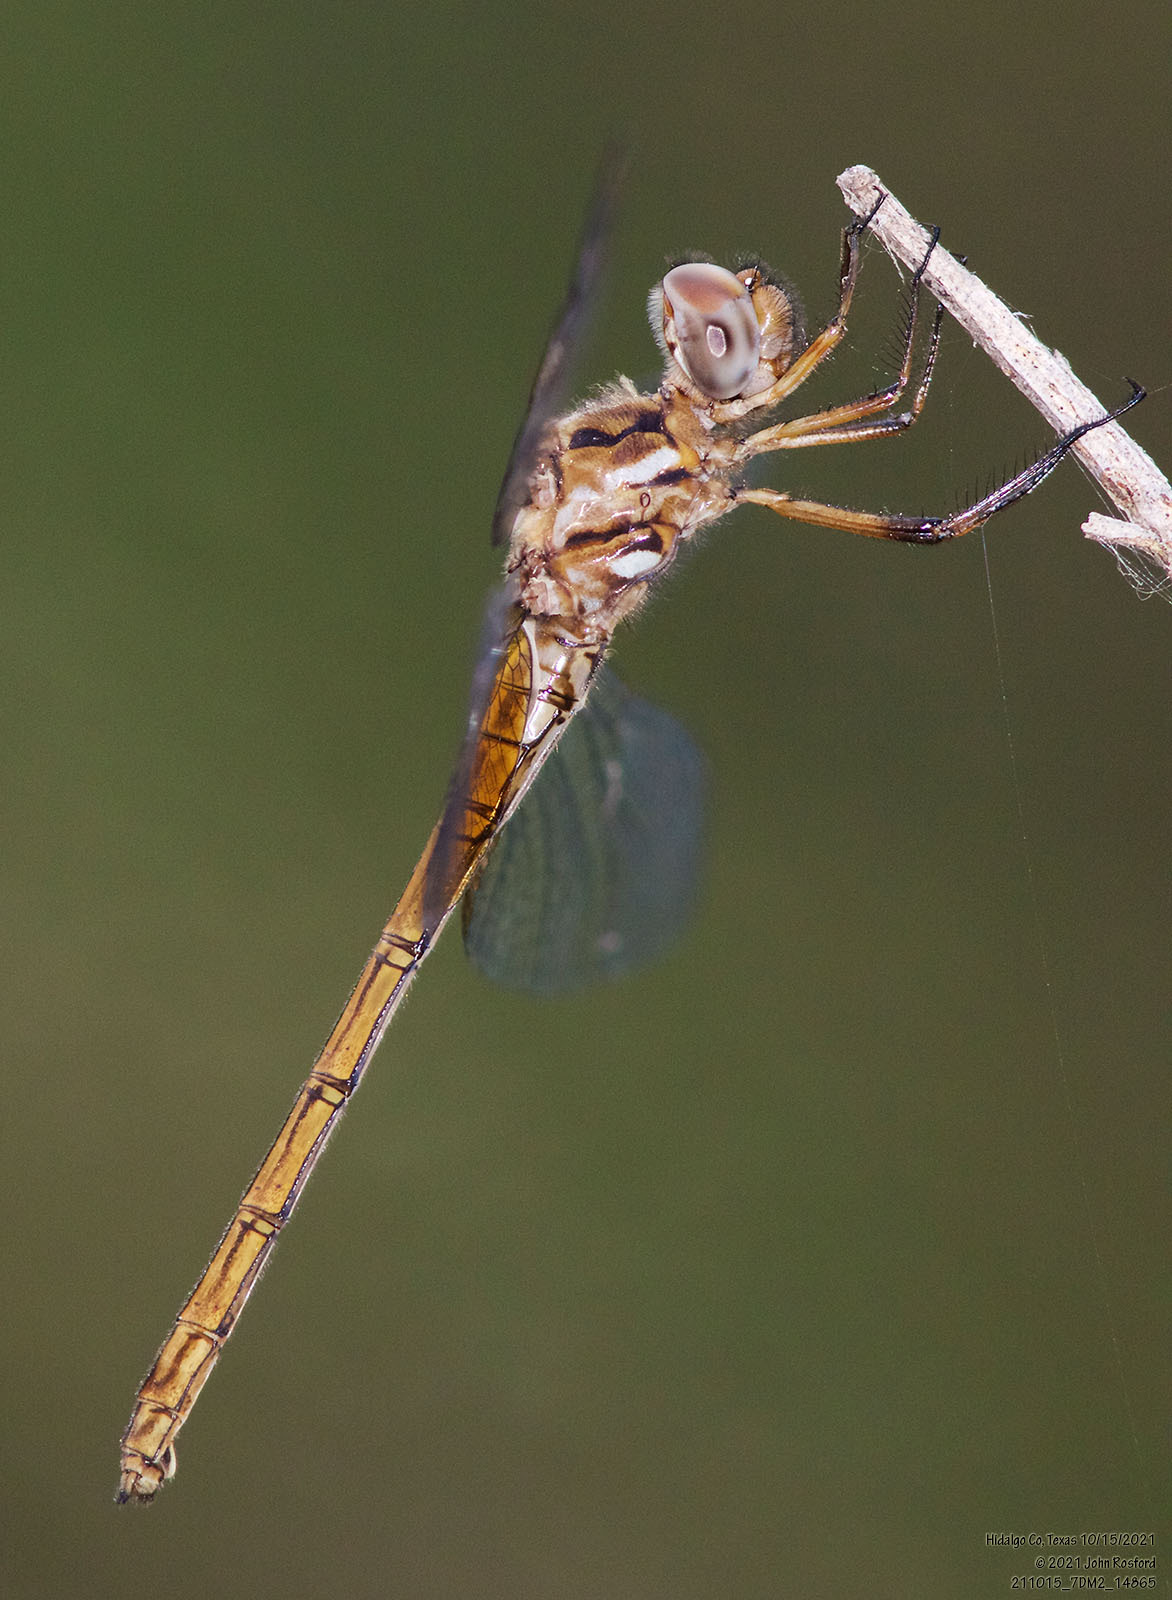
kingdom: Animalia
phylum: Arthropoda
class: Insecta
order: Odonata
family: Libellulidae
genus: Macrothemis
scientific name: Macrothemis inacuta
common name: Straw-colored sylph
